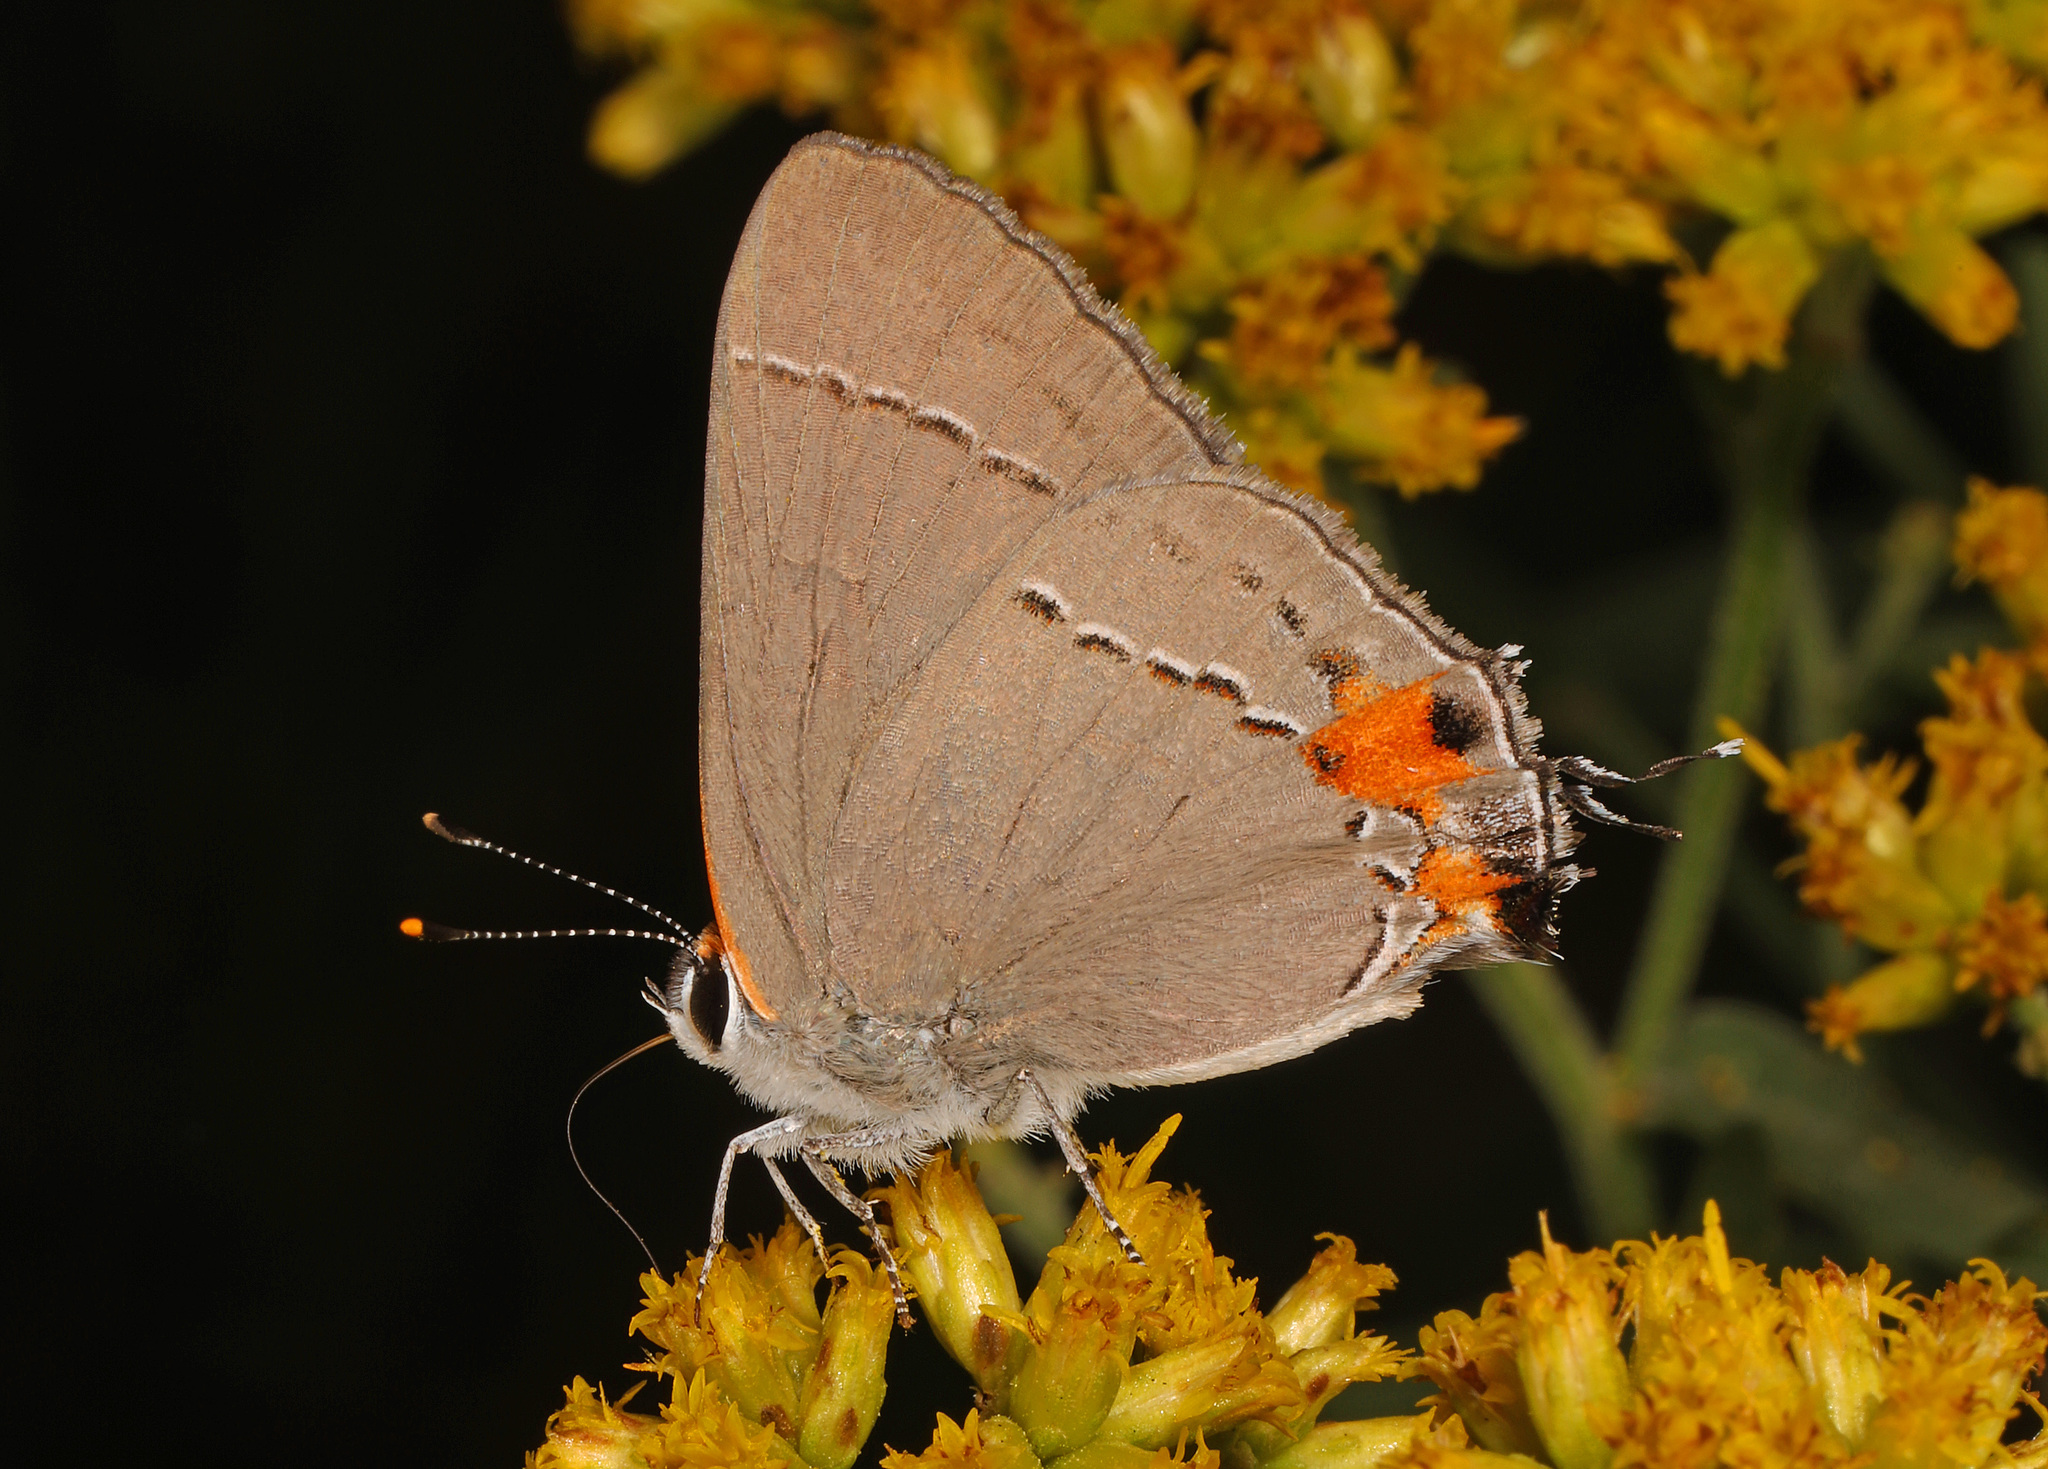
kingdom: Animalia
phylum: Arthropoda
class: Insecta
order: Lepidoptera
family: Lycaenidae
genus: Strymon
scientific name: Strymon melinus
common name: Gray hairstreak
